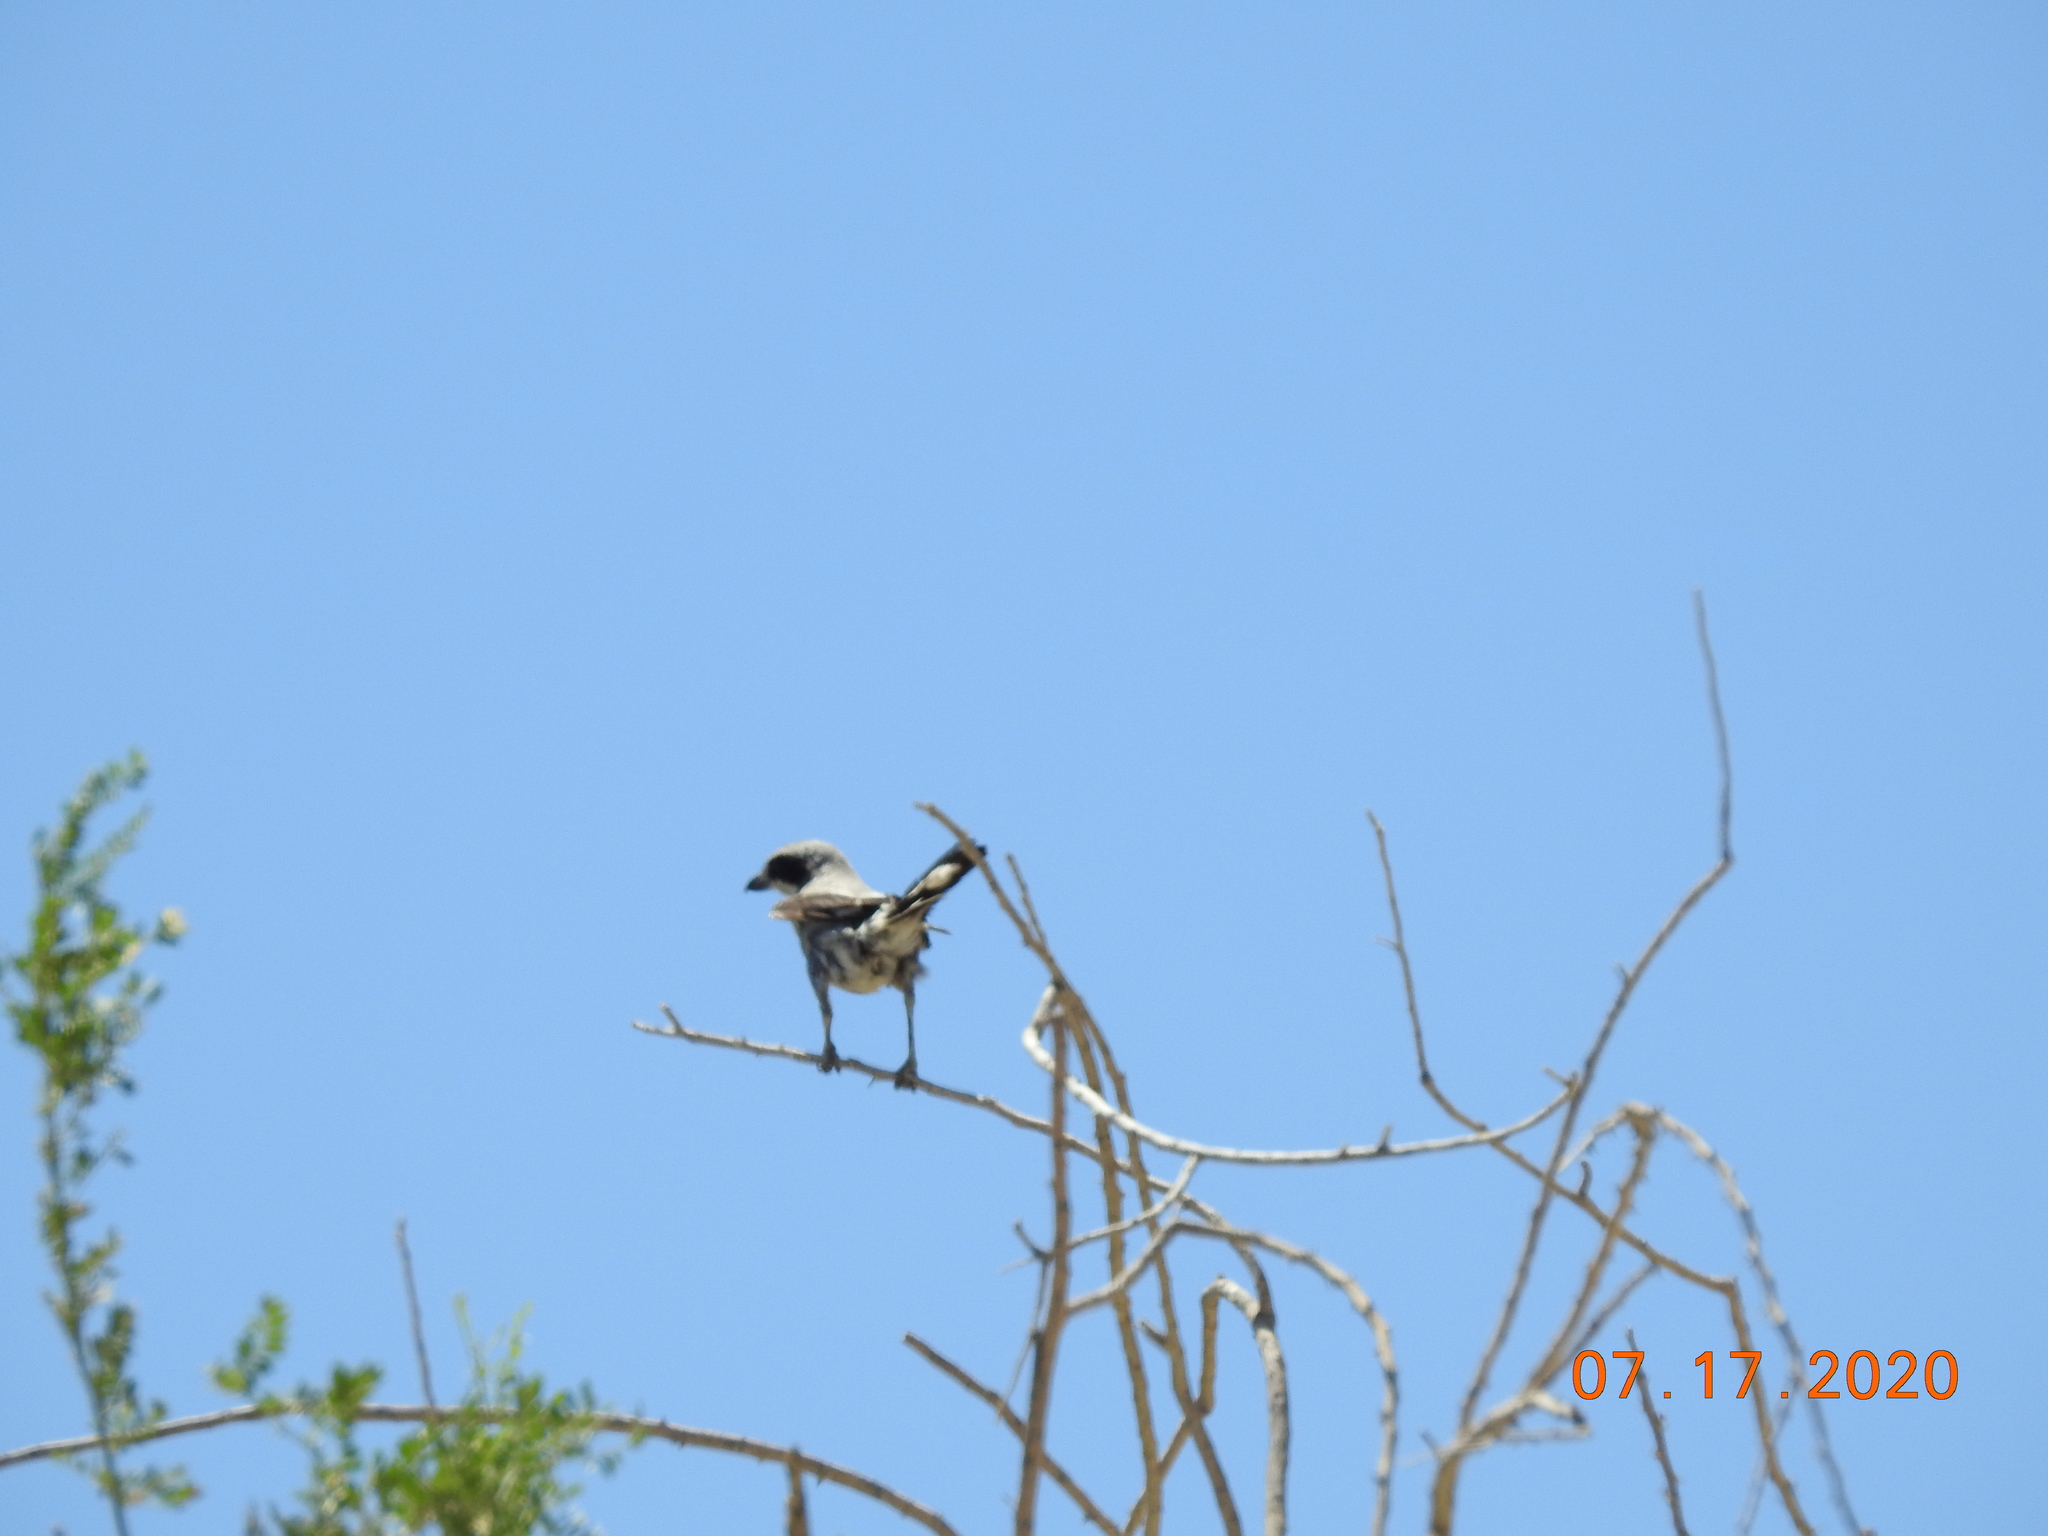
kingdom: Animalia
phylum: Chordata
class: Aves
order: Passeriformes
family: Laniidae
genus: Lanius
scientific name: Lanius ludovicianus
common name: Loggerhead shrike
